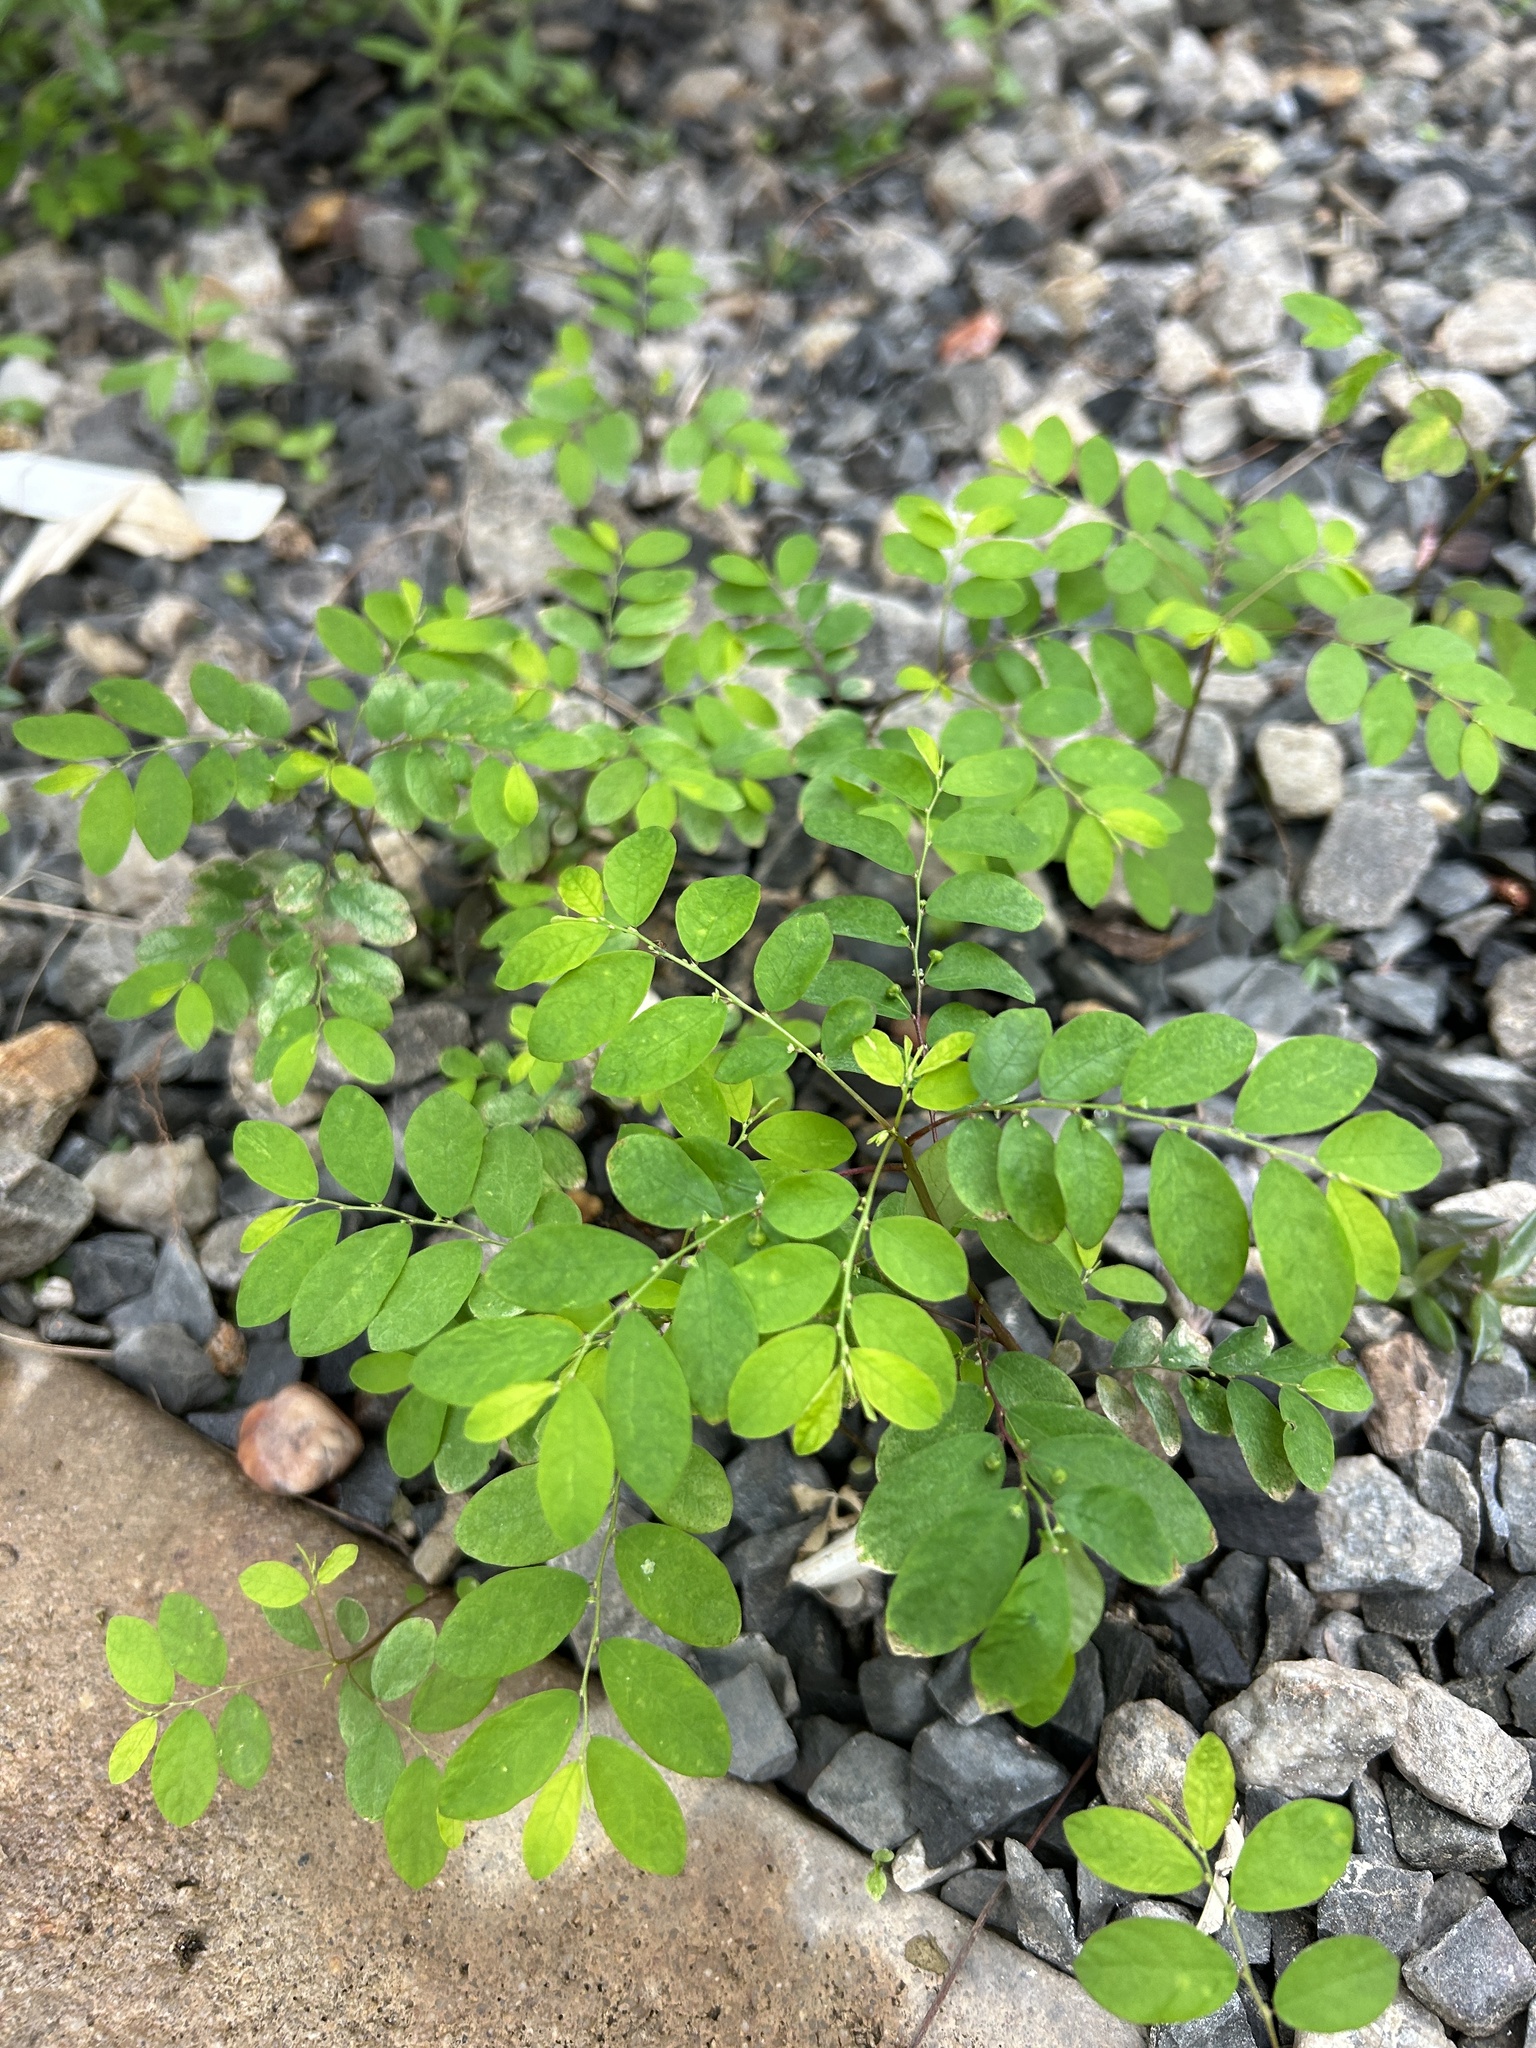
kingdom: Plantae
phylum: Tracheophyta
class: Magnoliopsida
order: Malpighiales
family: Phyllanthaceae
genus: Phyllanthus
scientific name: Phyllanthus tenellus
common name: Mascarene island leaf-flower
